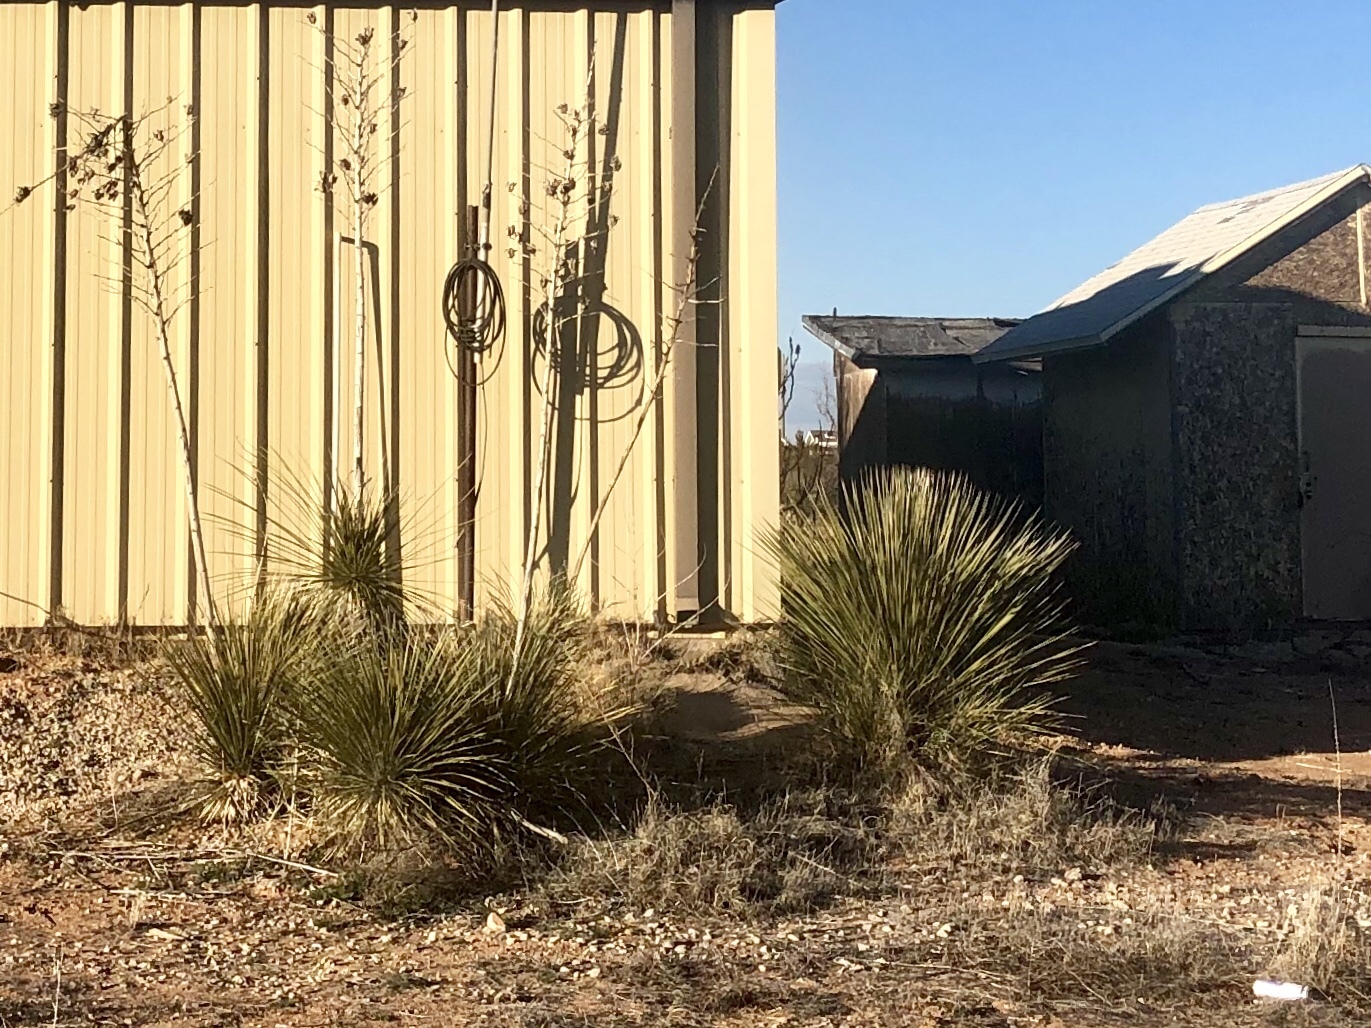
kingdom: Plantae
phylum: Tracheophyta
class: Liliopsida
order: Asparagales
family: Asparagaceae
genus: Yucca
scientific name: Yucca elata
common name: Palmella
